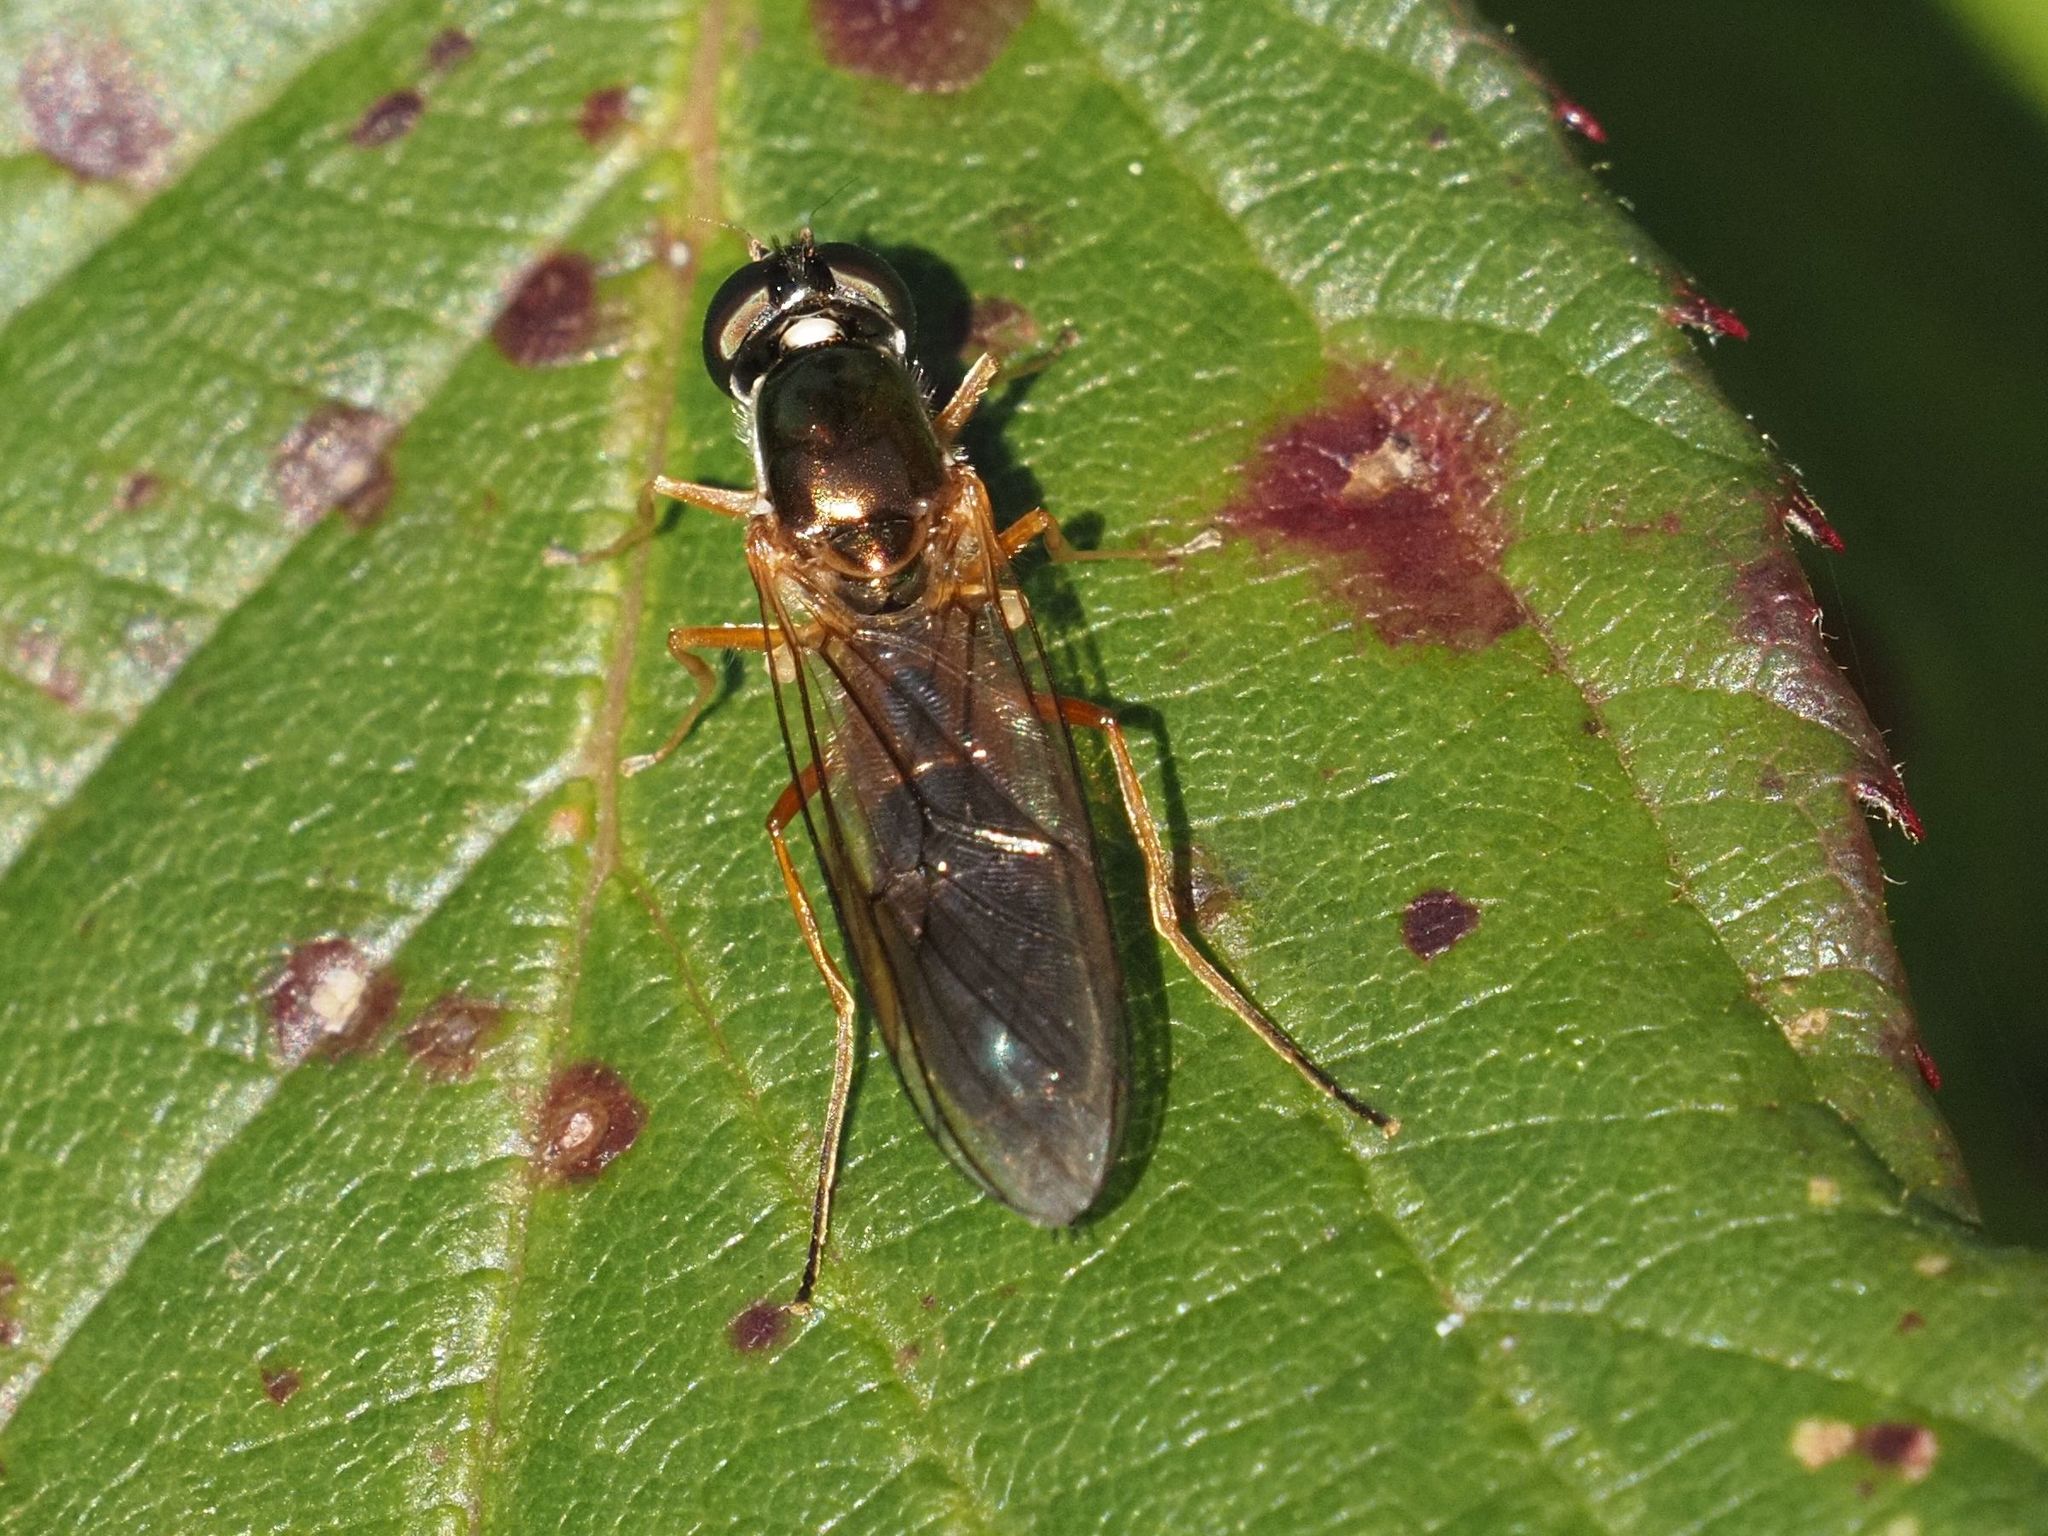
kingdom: Animalia
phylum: Arthropoda
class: Insecta
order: Diptera
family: Stratiomyidae
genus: Sargus
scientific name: Sargus bipunctatus
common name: Twin-spot centurion
